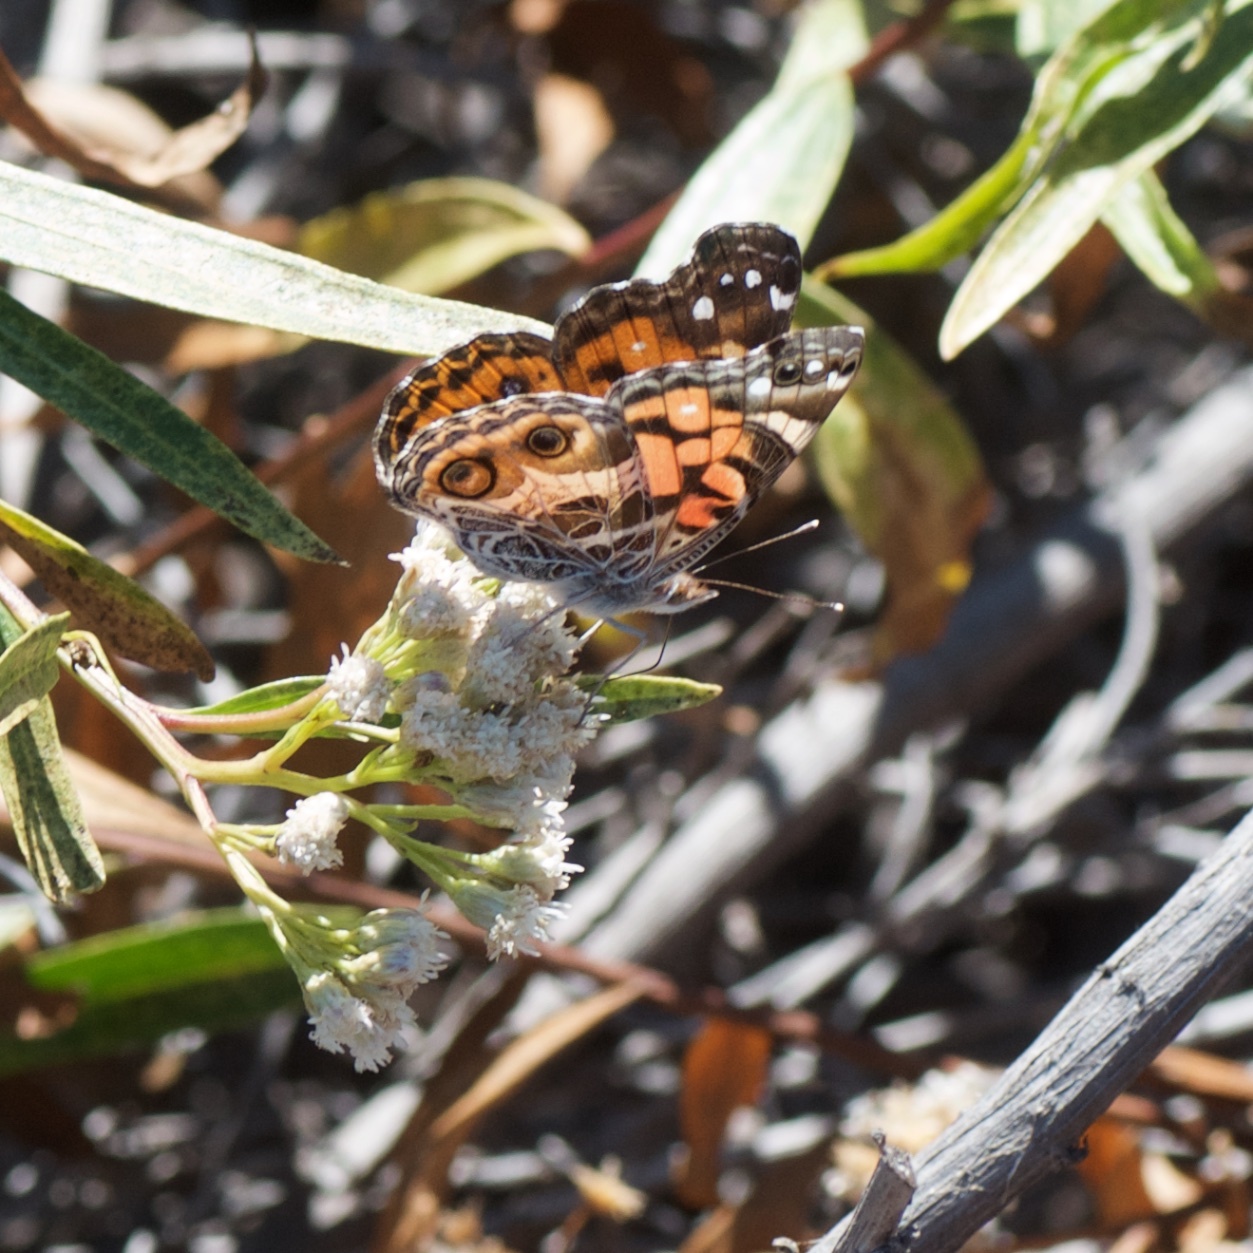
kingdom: Animalia
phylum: Arthropoda
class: Insecta
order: Lepidoptera
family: Nymphalidae
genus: Vanessa
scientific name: Vanessa virginiensis
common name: American lady
